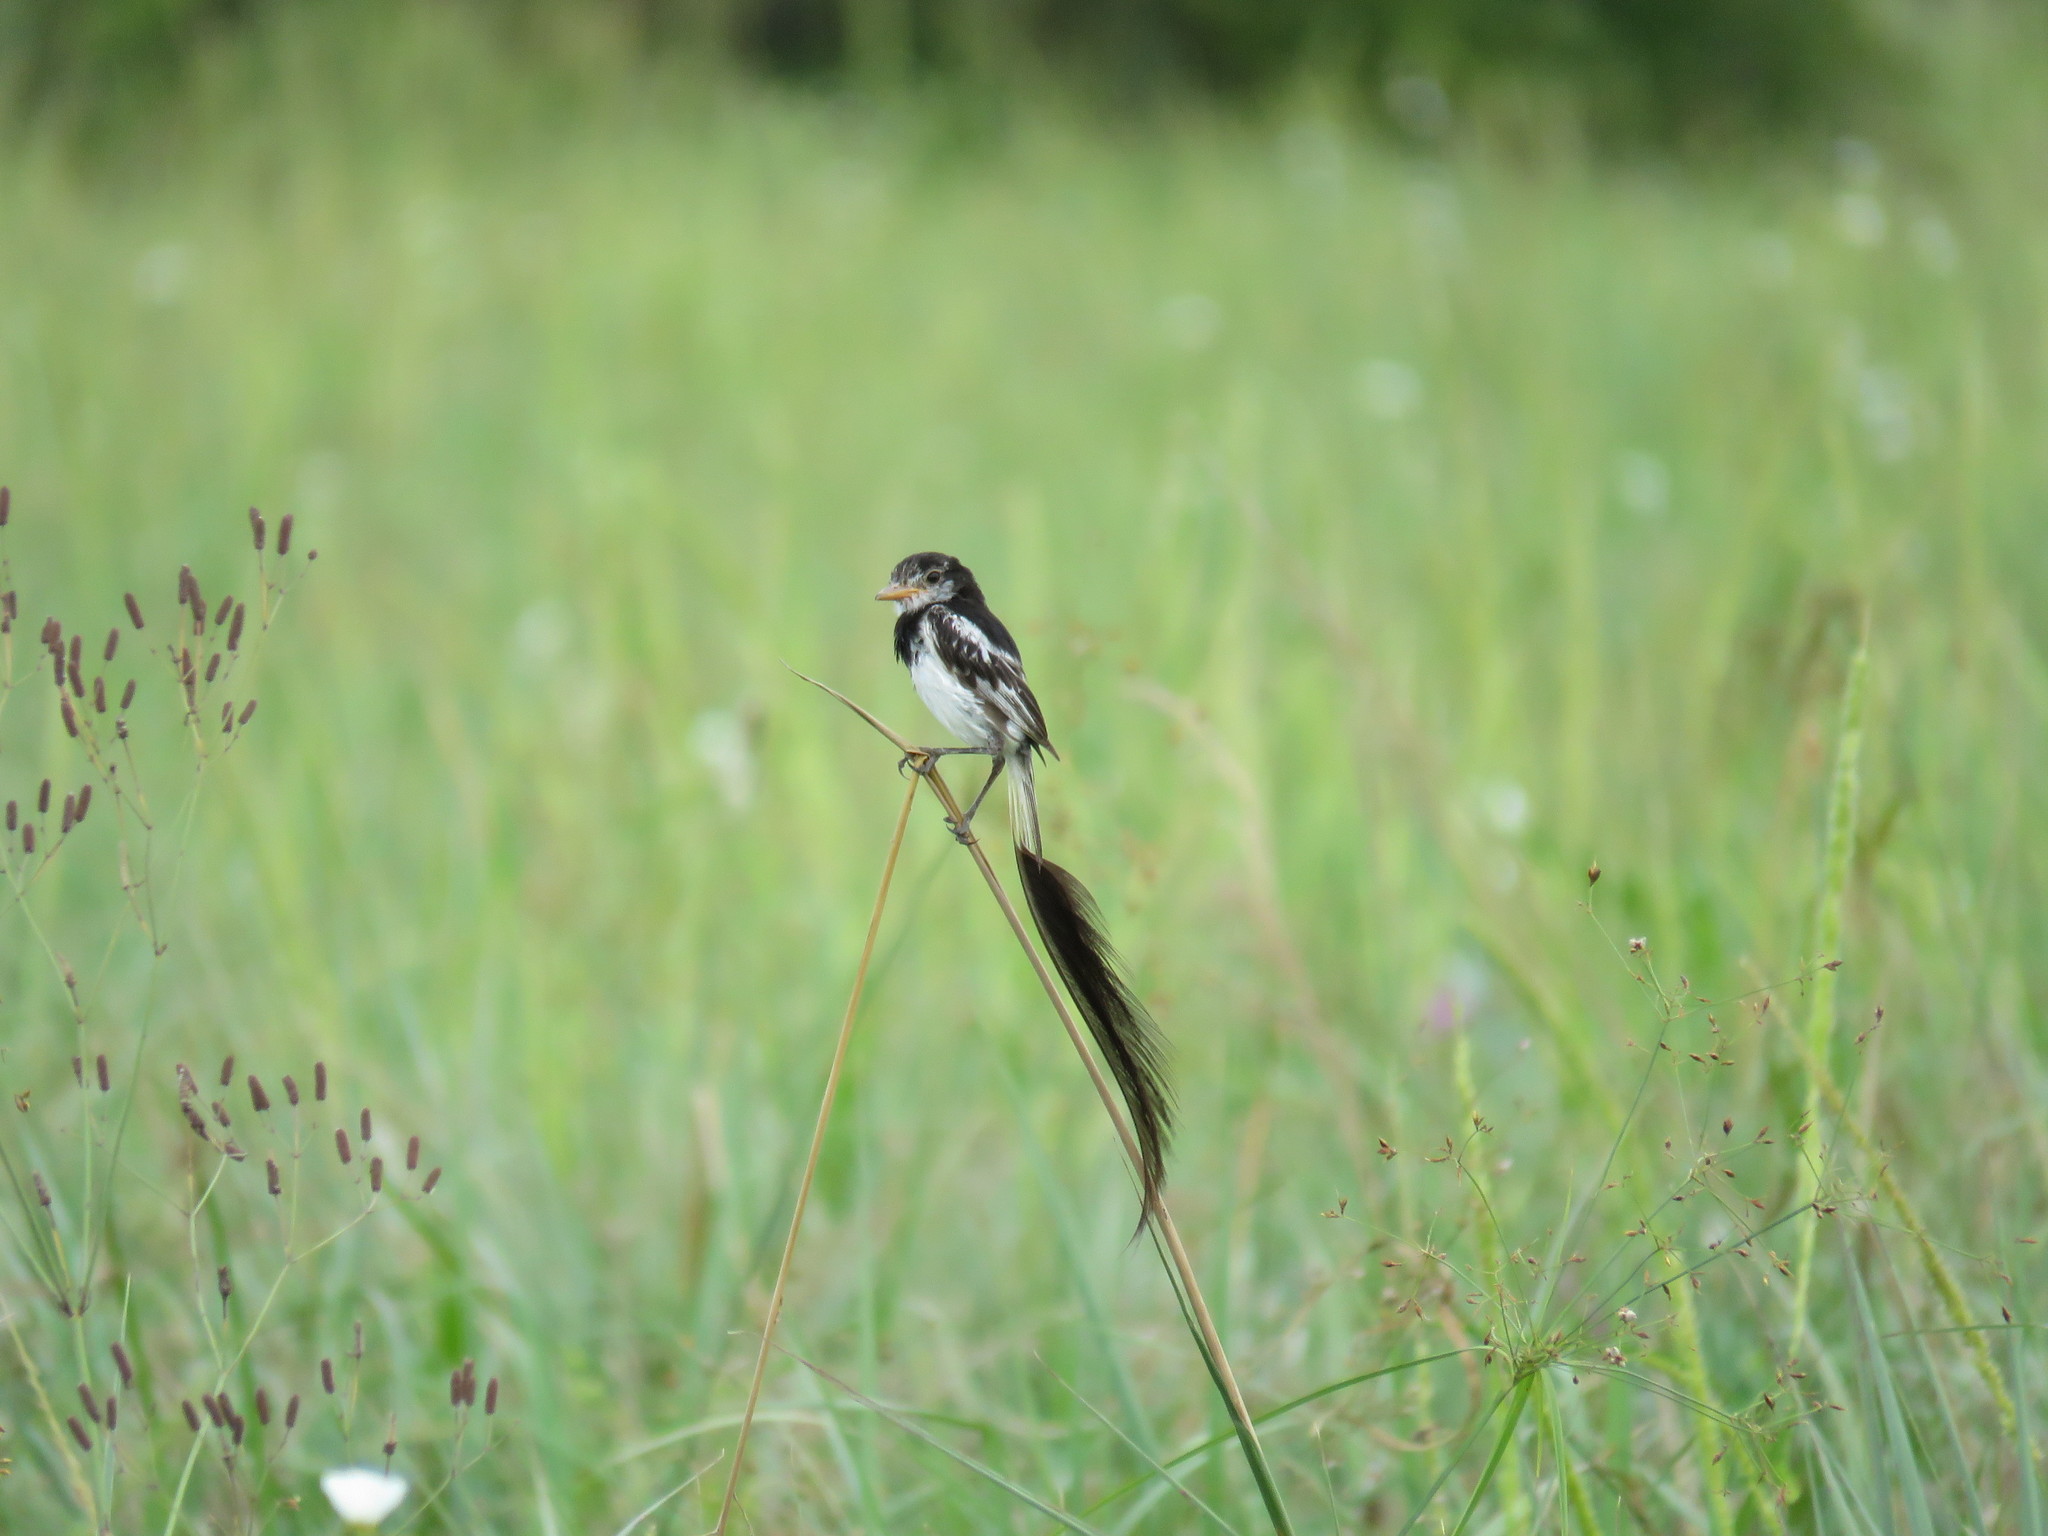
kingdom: Animalia
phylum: Chordata
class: Aves
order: Passeriformes
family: Tyrannidae
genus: Alectrurus
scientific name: Alectrurus risora
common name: Strange-tailed tyrant
